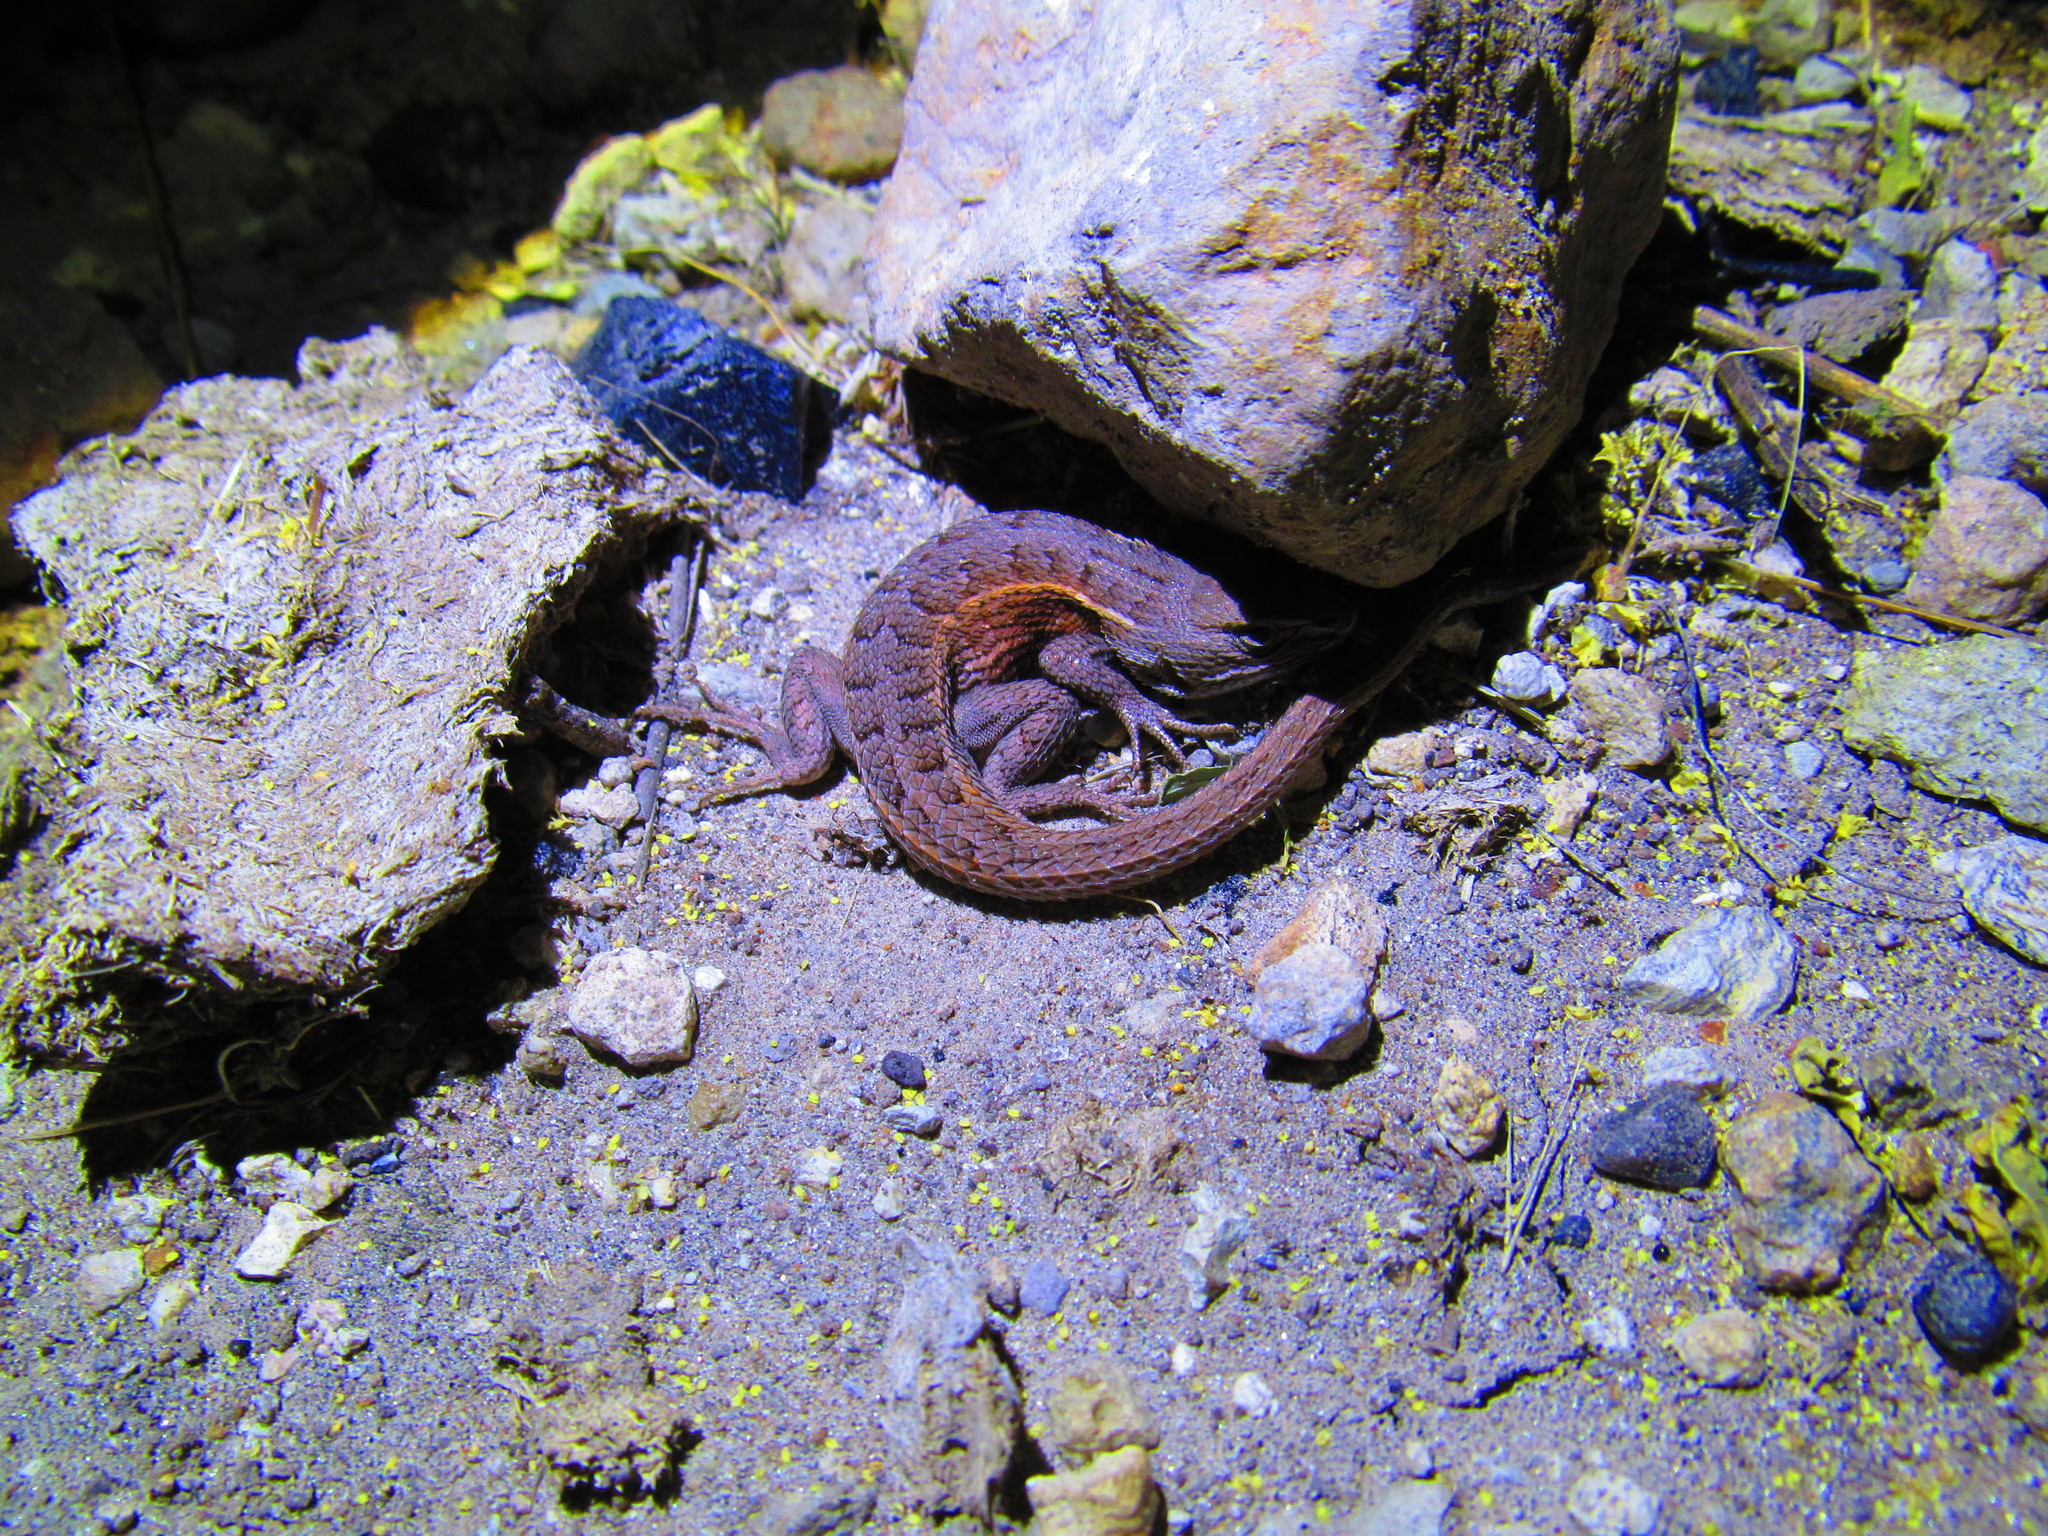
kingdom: Animalia
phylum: Chordata
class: Squamata
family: Phrynosomatidae
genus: Sceloporus
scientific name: Sceloporus subniger
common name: Plateau bunchgrass lizard
